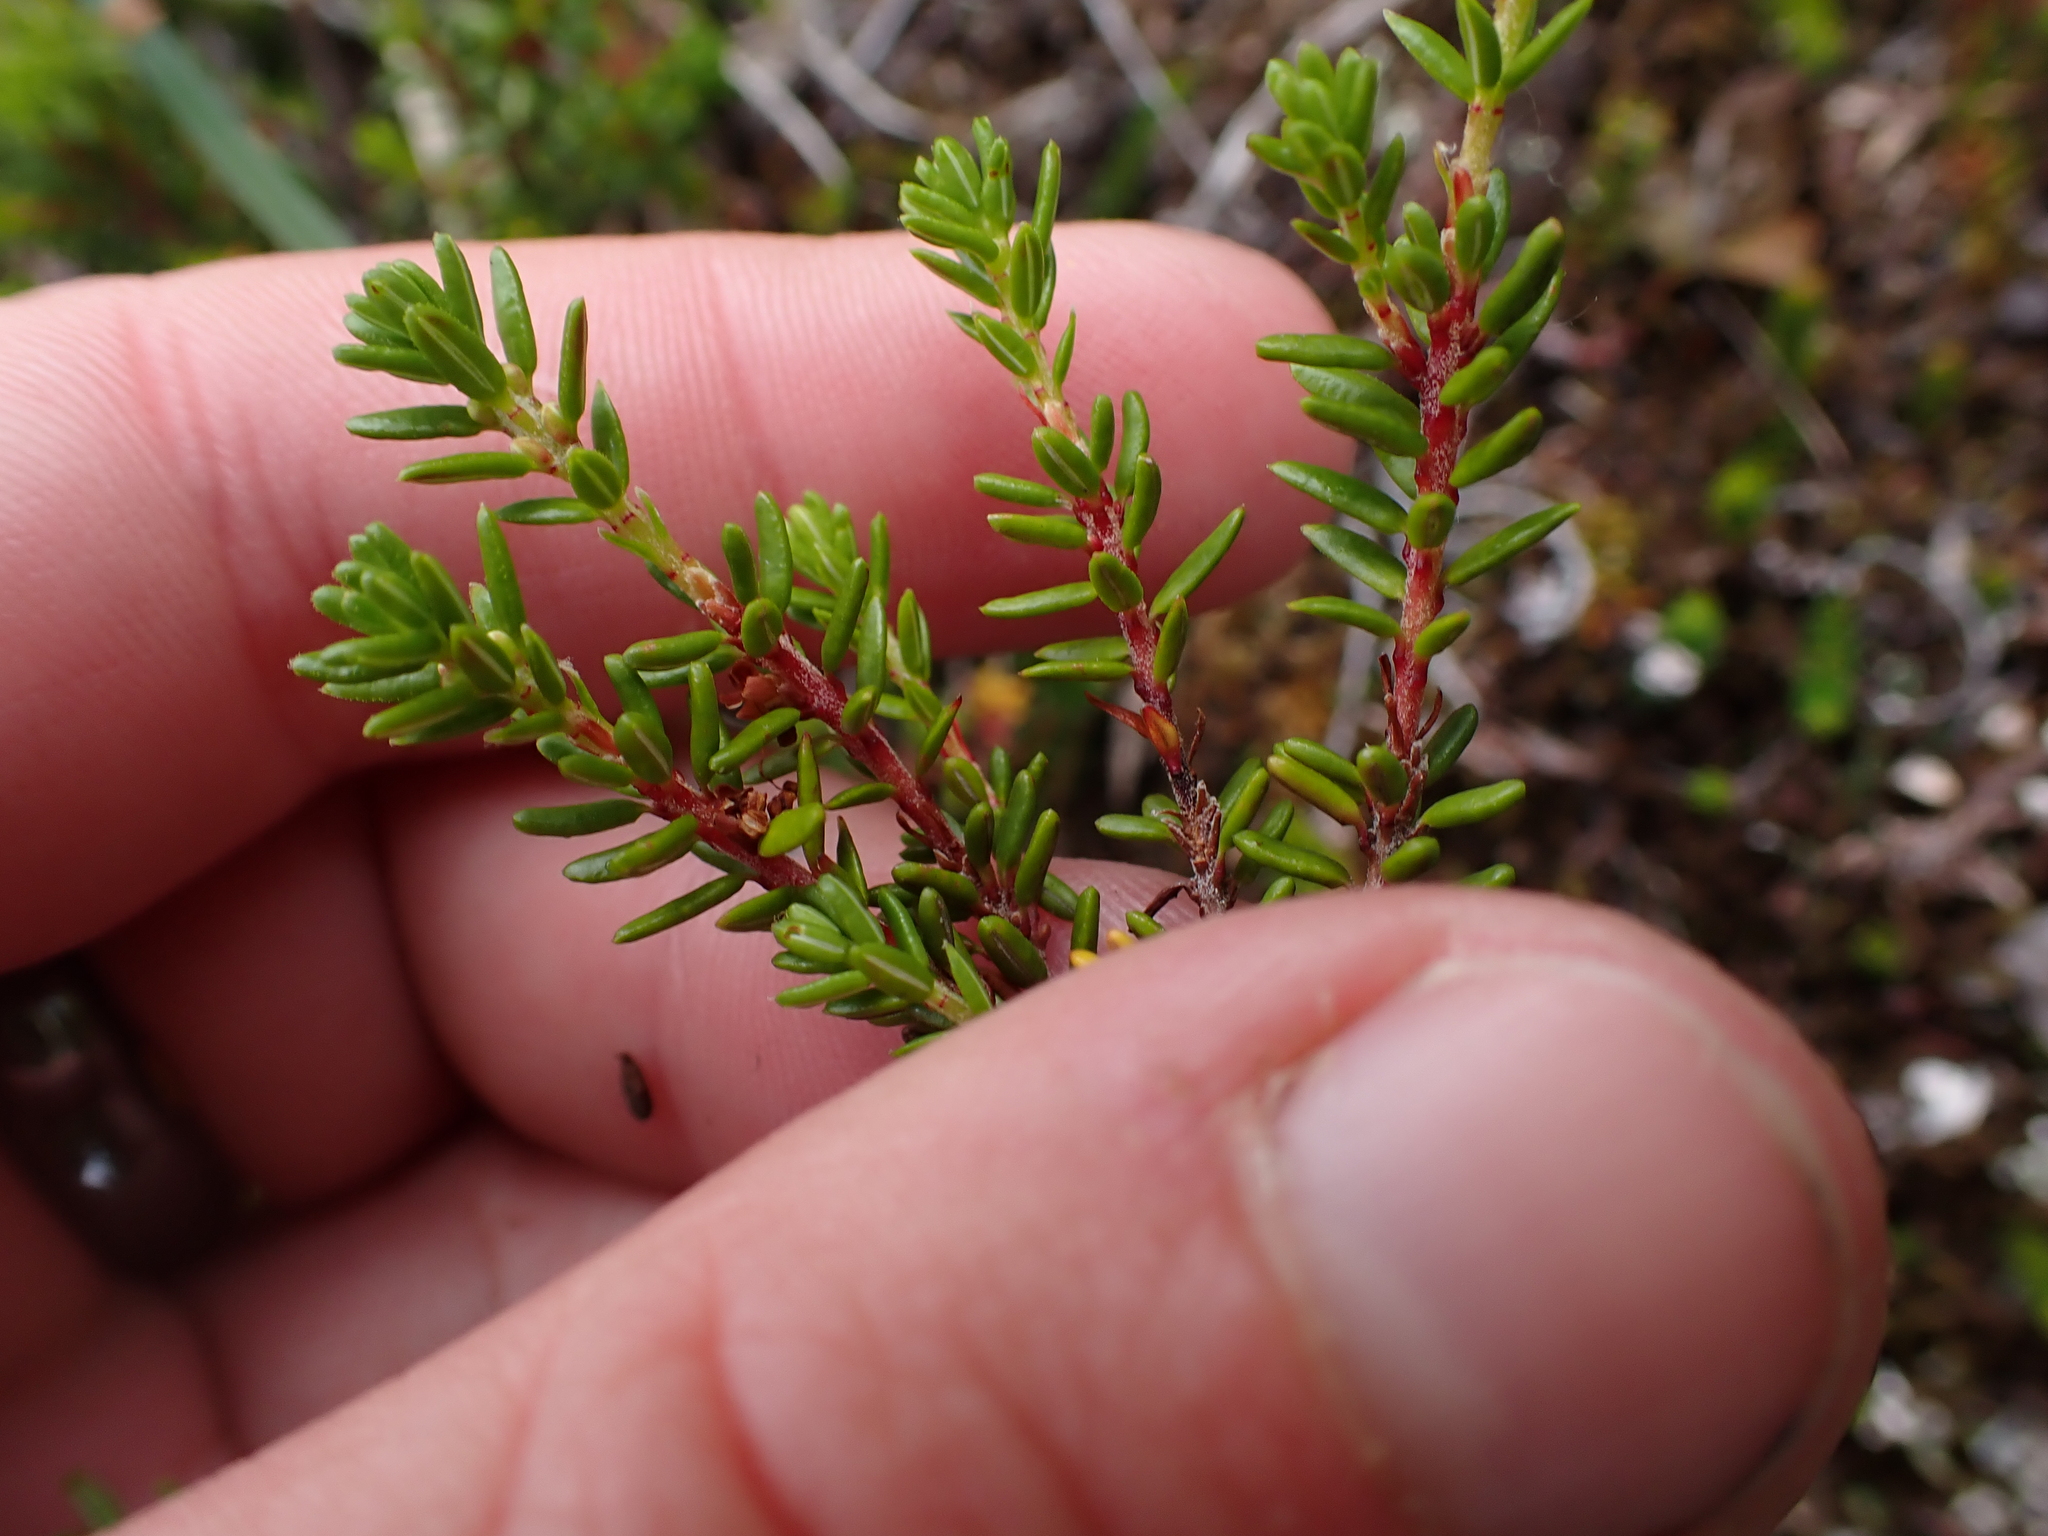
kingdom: Plantae
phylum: Tracheophyta
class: Magnoliopsida
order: Ericales
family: Ericaceae
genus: Empetrum
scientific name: Empetrum nigrum
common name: Black crowberry
